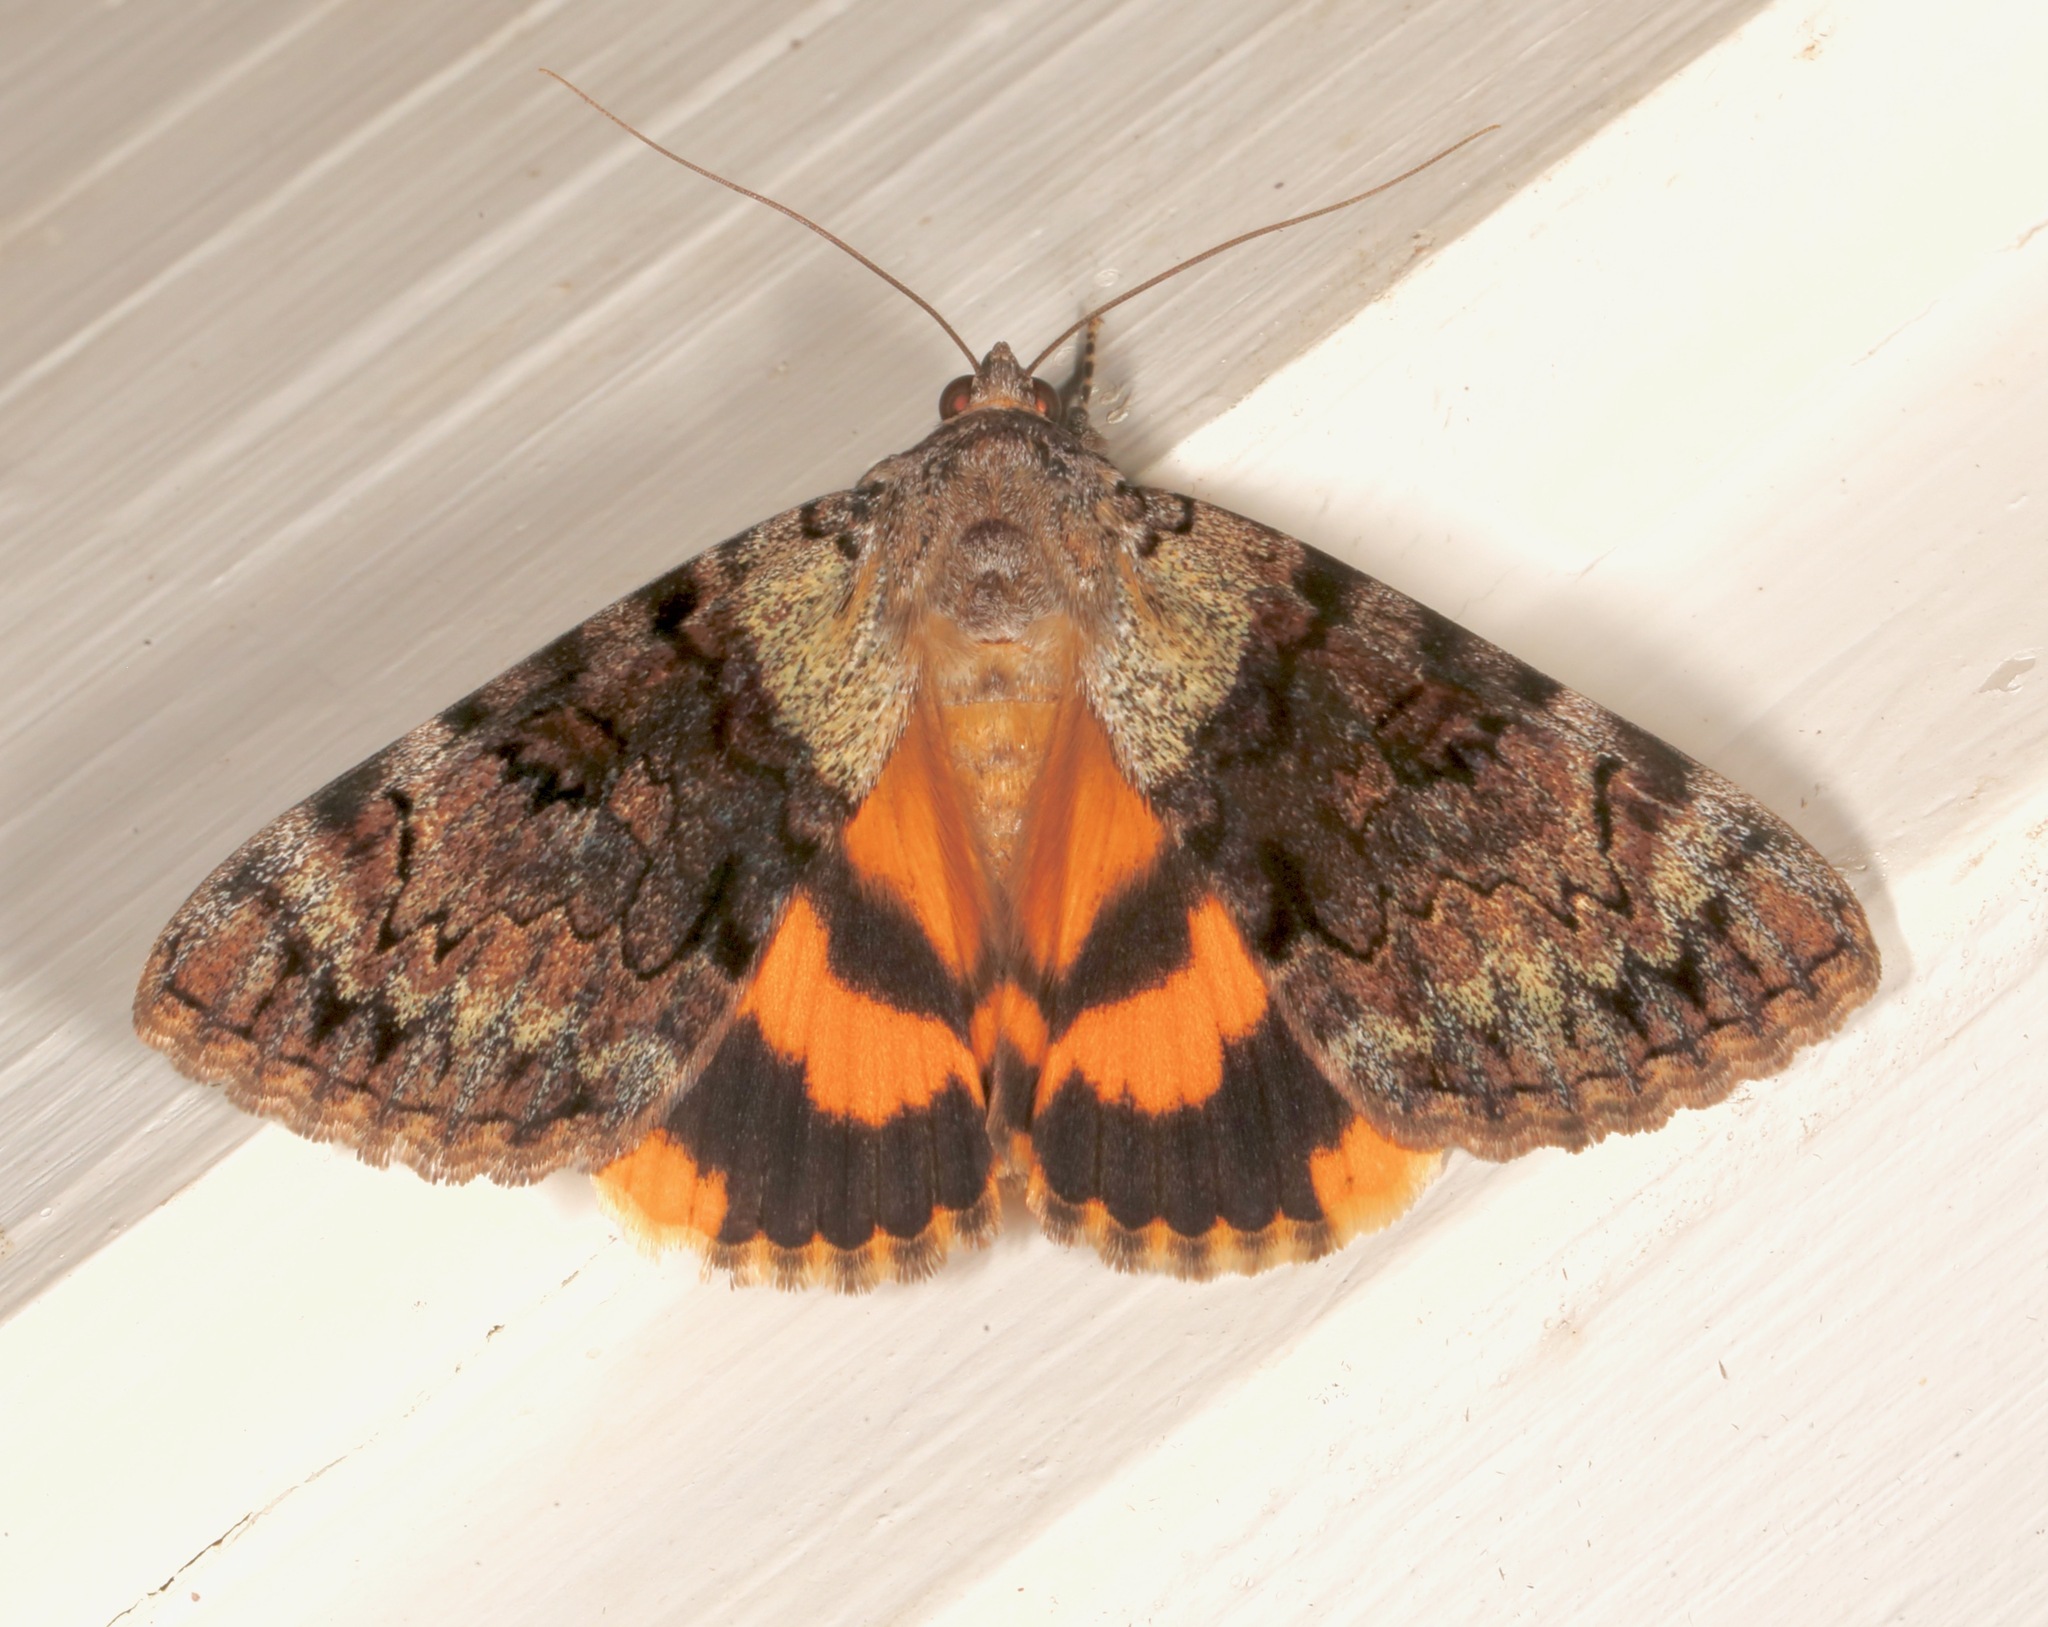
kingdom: Animalia
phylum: Arthropoda
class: Insecta
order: Lepidoptera
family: Erebidae
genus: Catocala
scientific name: Catocala desdemona
